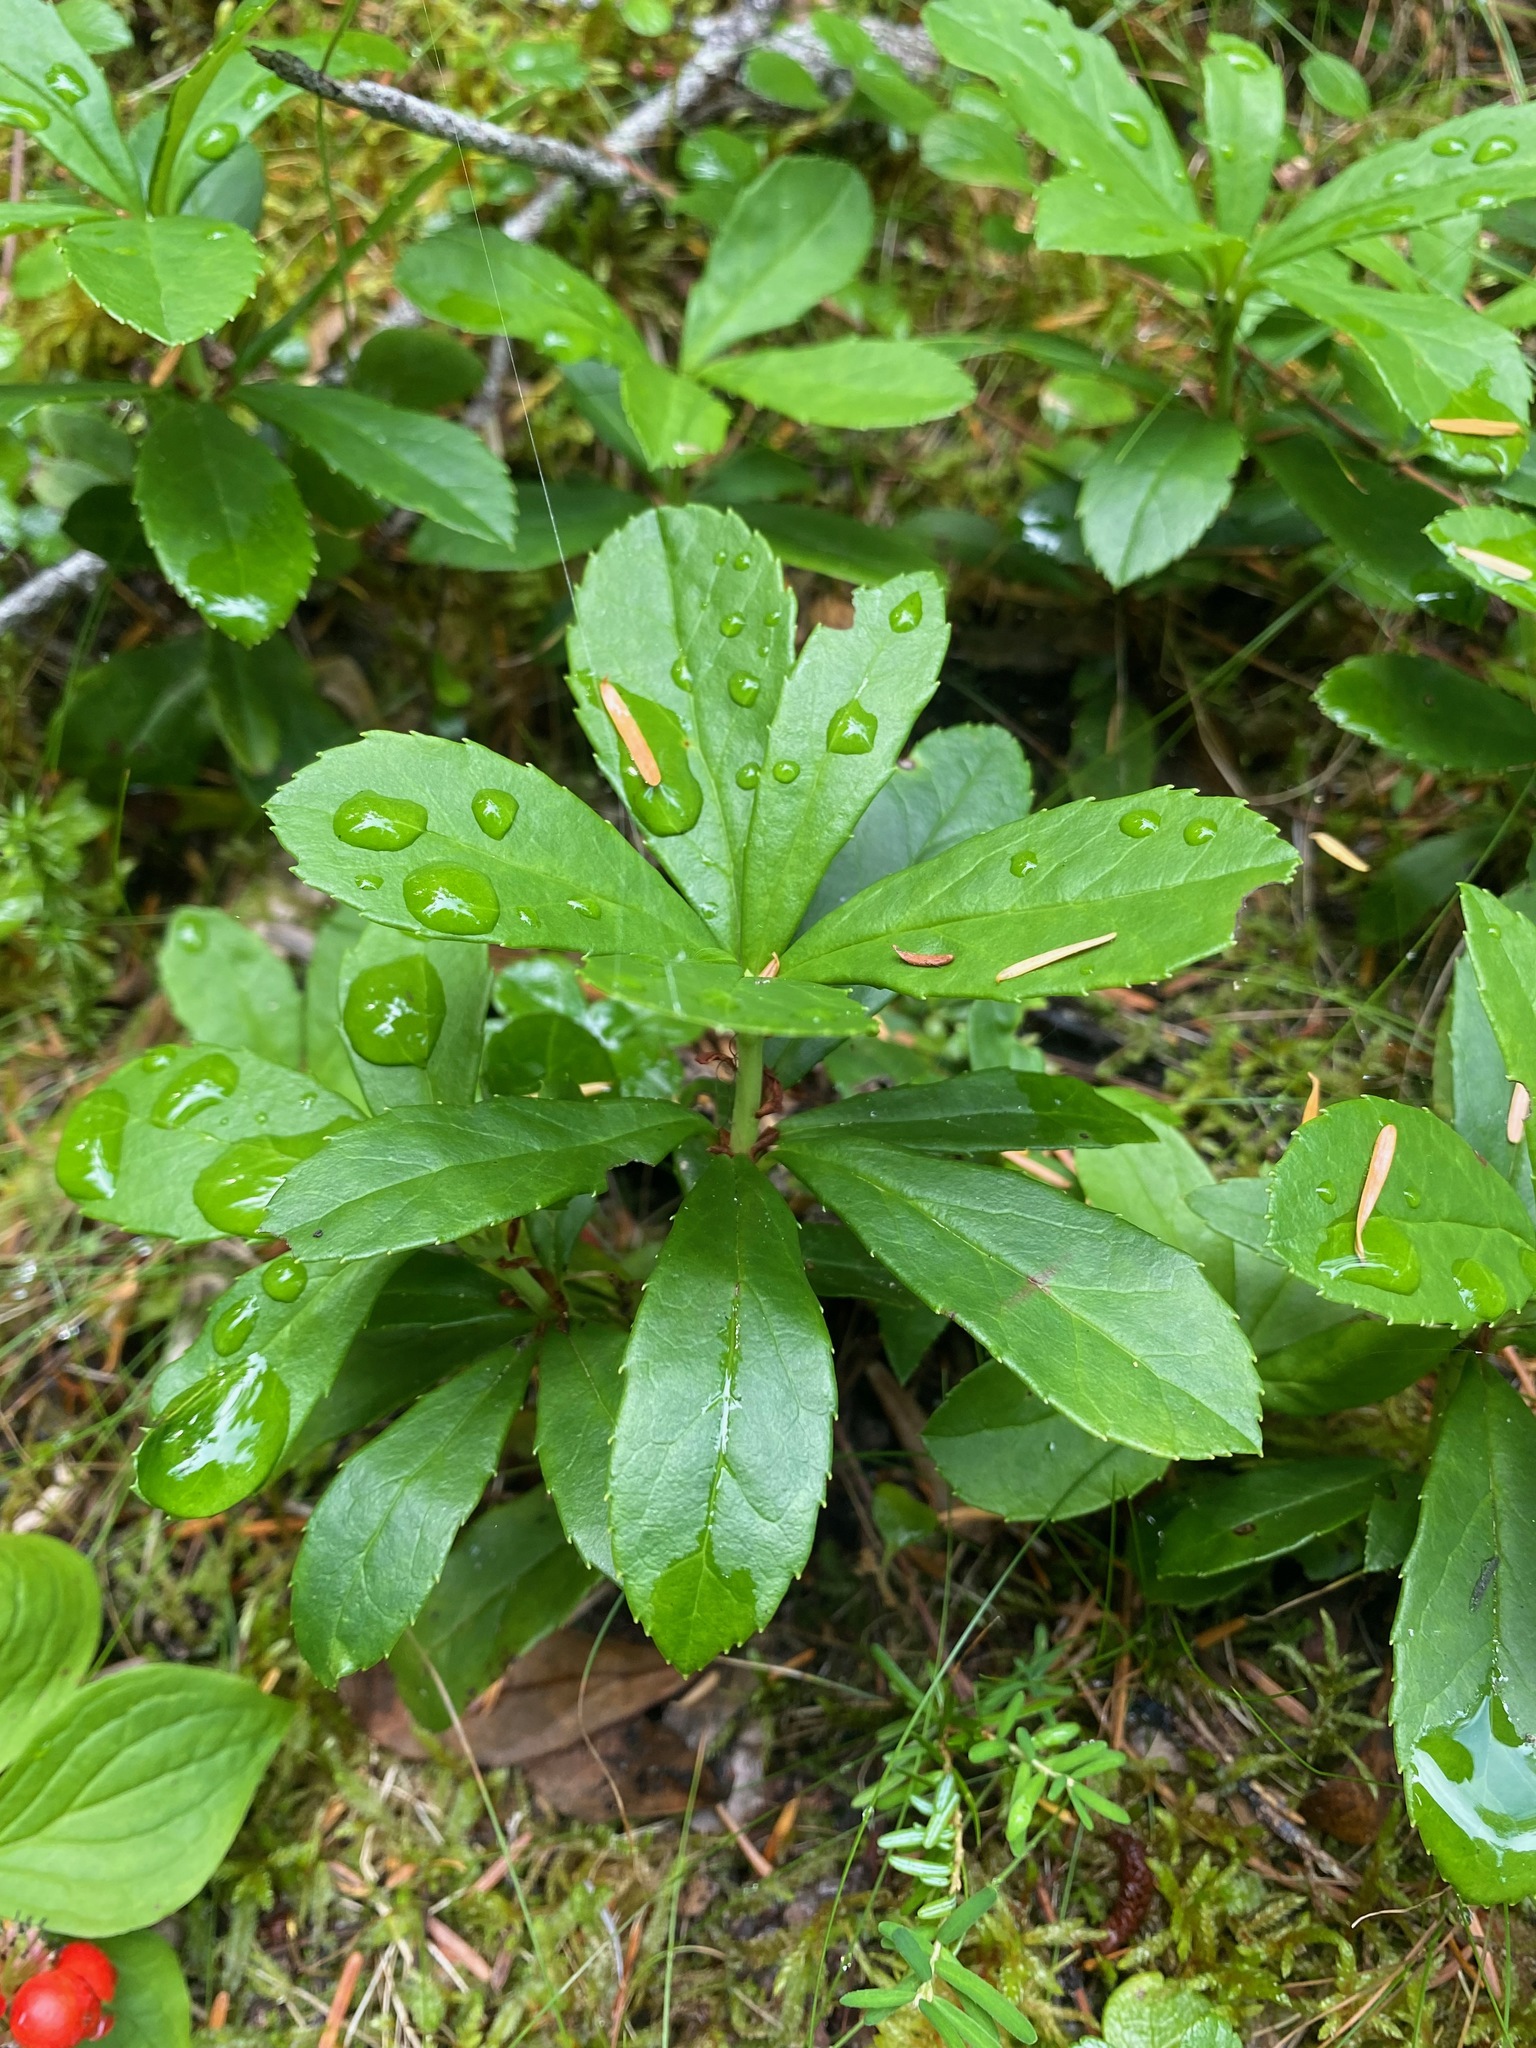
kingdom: Plantae
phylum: Tracheophyta
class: Magnoliopsida
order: Ericales
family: Ericaceae
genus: Chimaphila
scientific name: Chimaphila umbellata
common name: Pipsissewa
